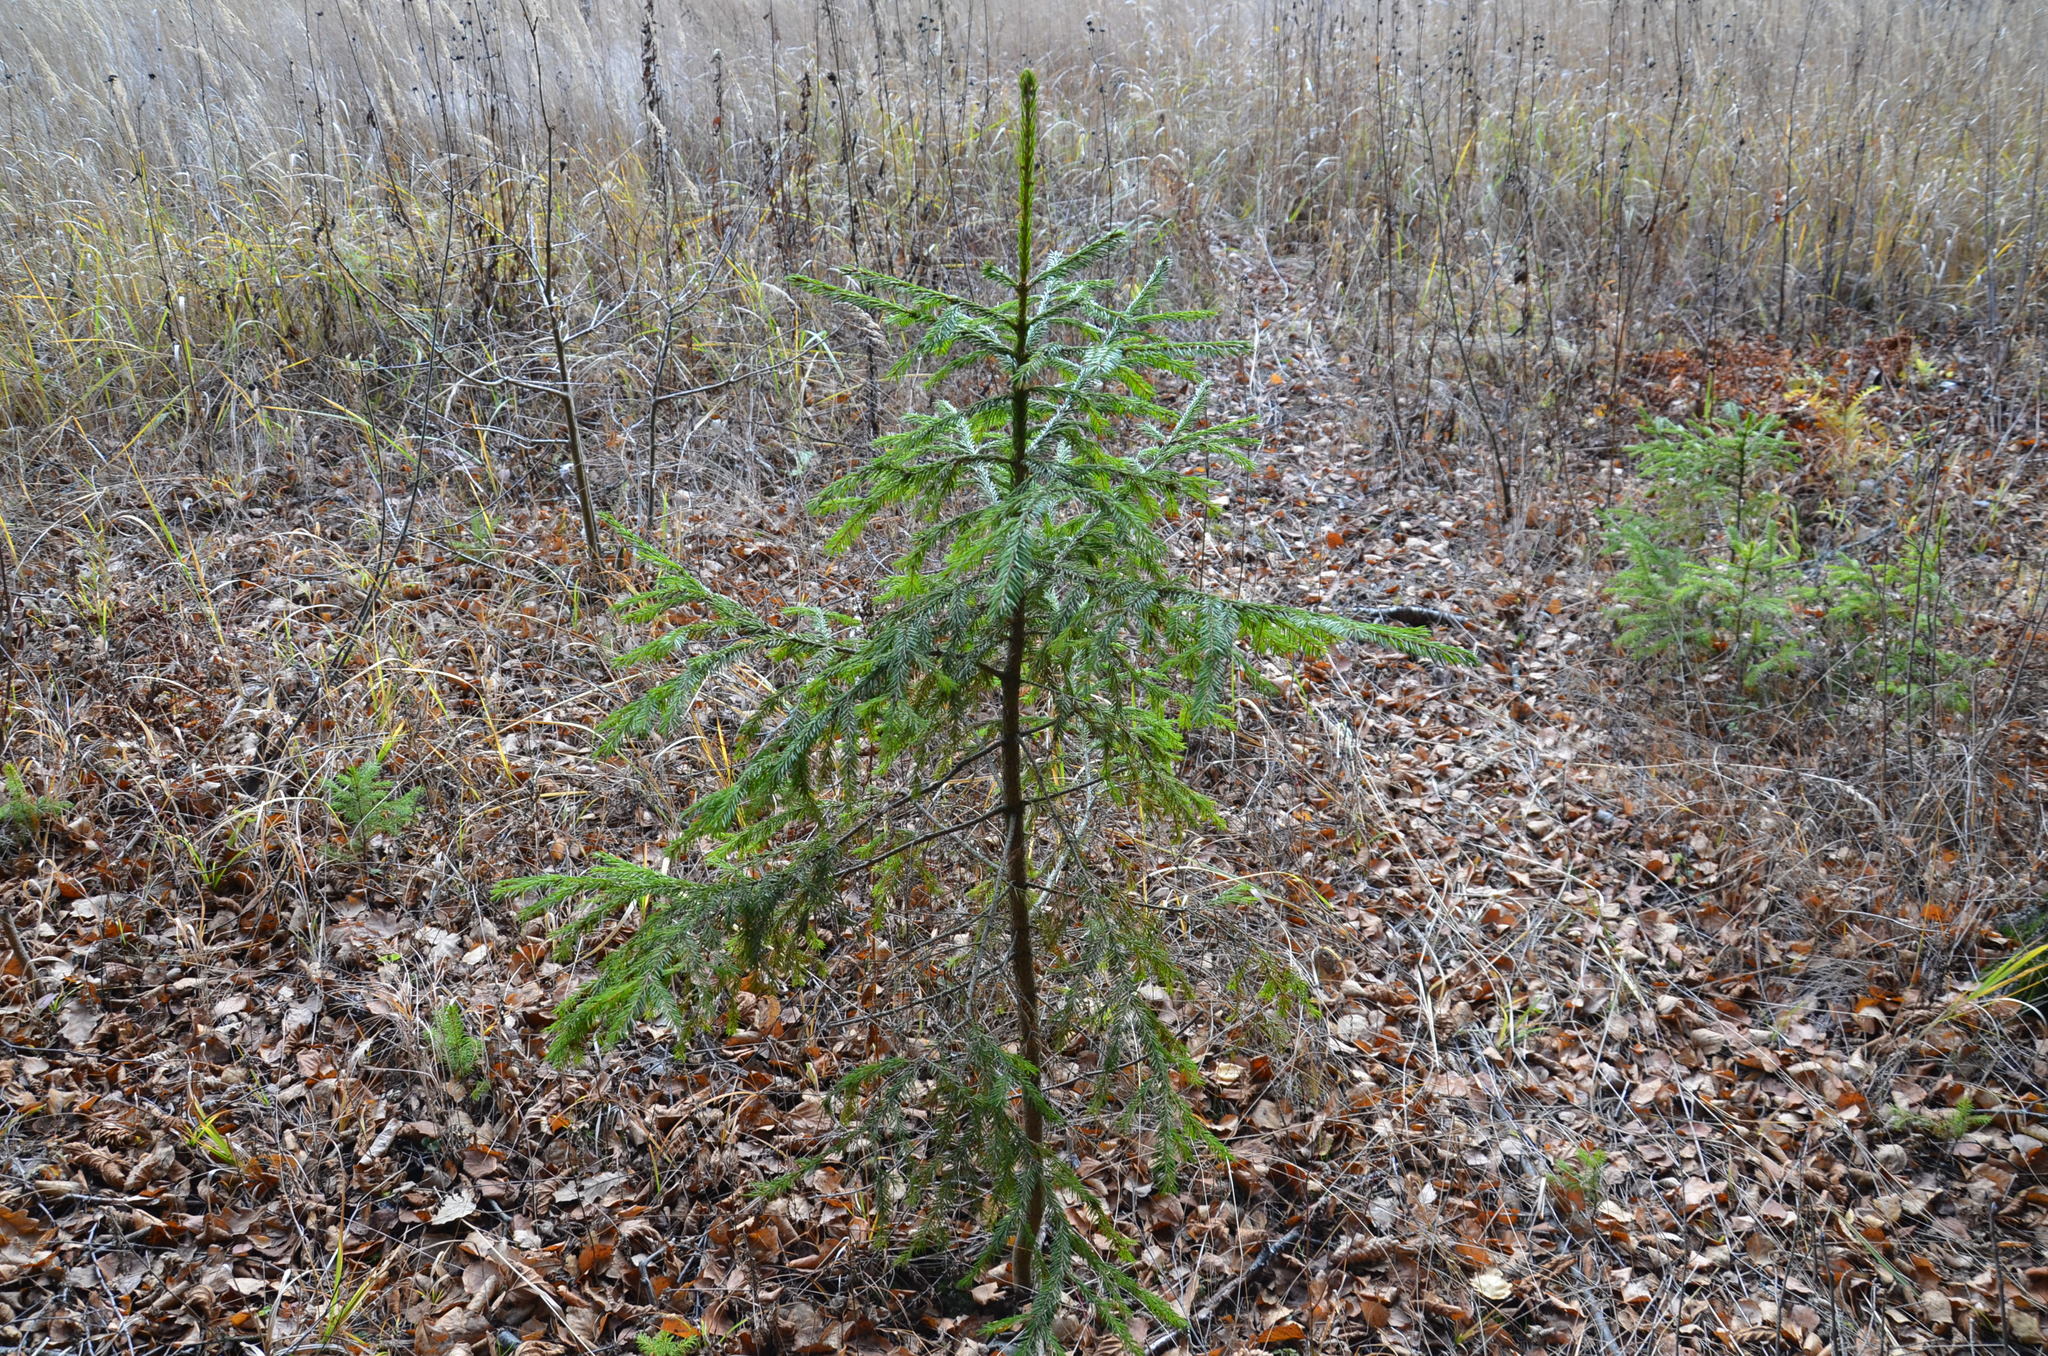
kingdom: Plantae
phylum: Tracheophyta
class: Pinopsida
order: Pinales
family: Pinaceae
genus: Picea
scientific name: Picea abies
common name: Norway spruce
